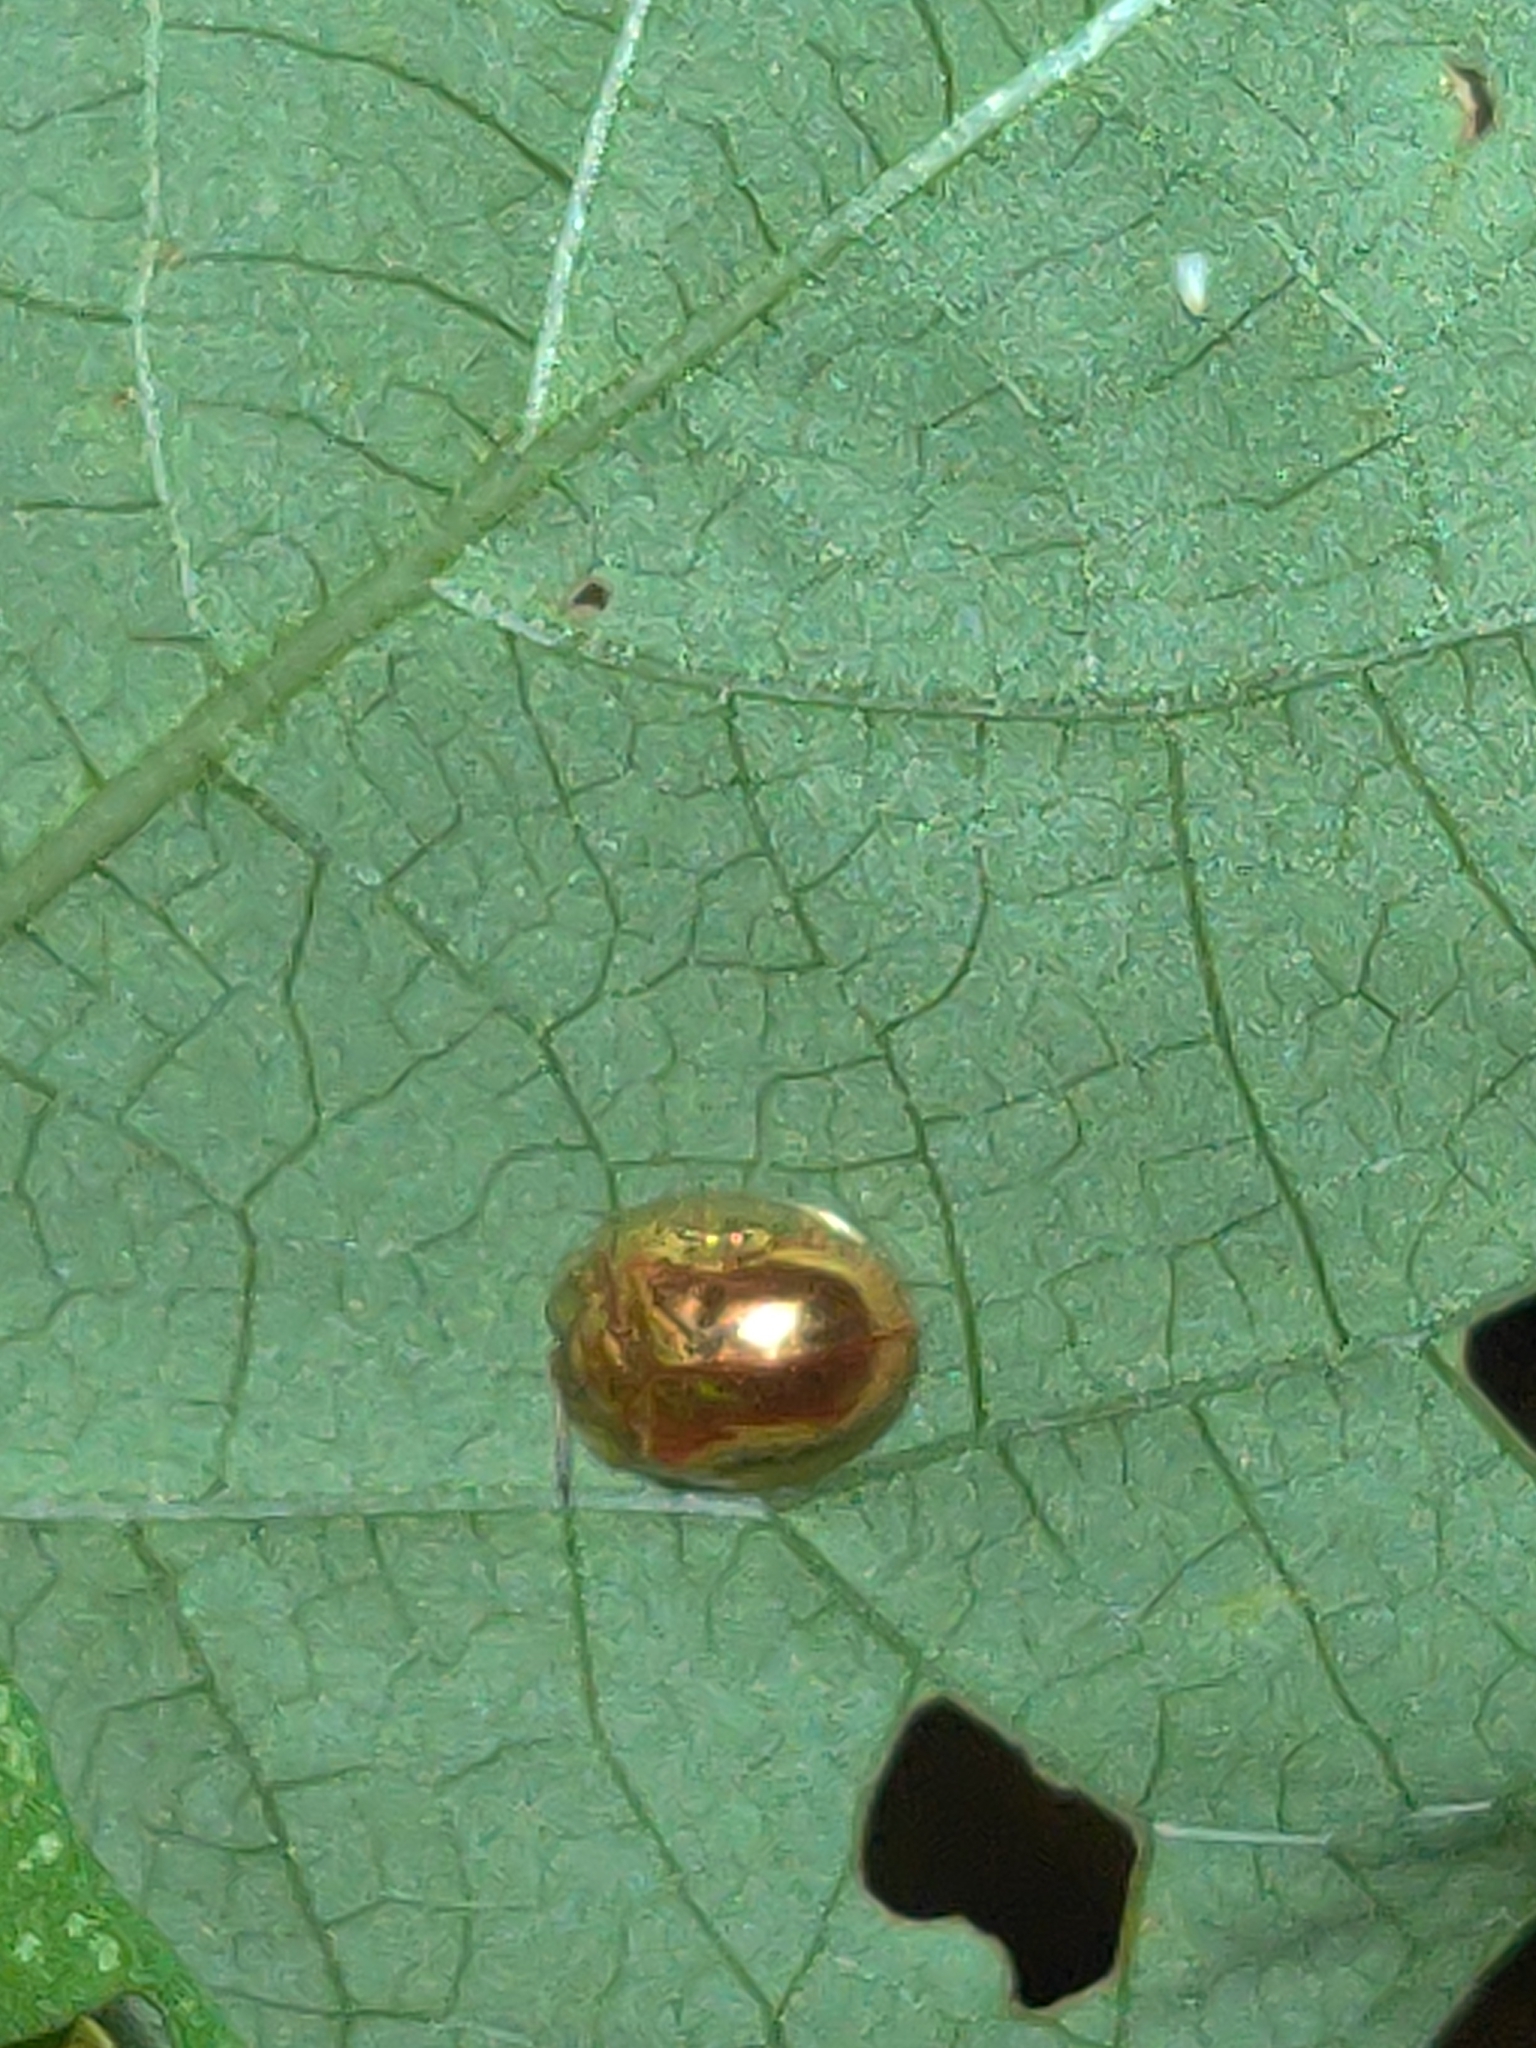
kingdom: Animalia
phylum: Arthropoda
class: Insecta
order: Coleoptera
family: Chrysomelidae
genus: Charidotella
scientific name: Charidotella sexpunctata
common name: Golden tortoise beetle
